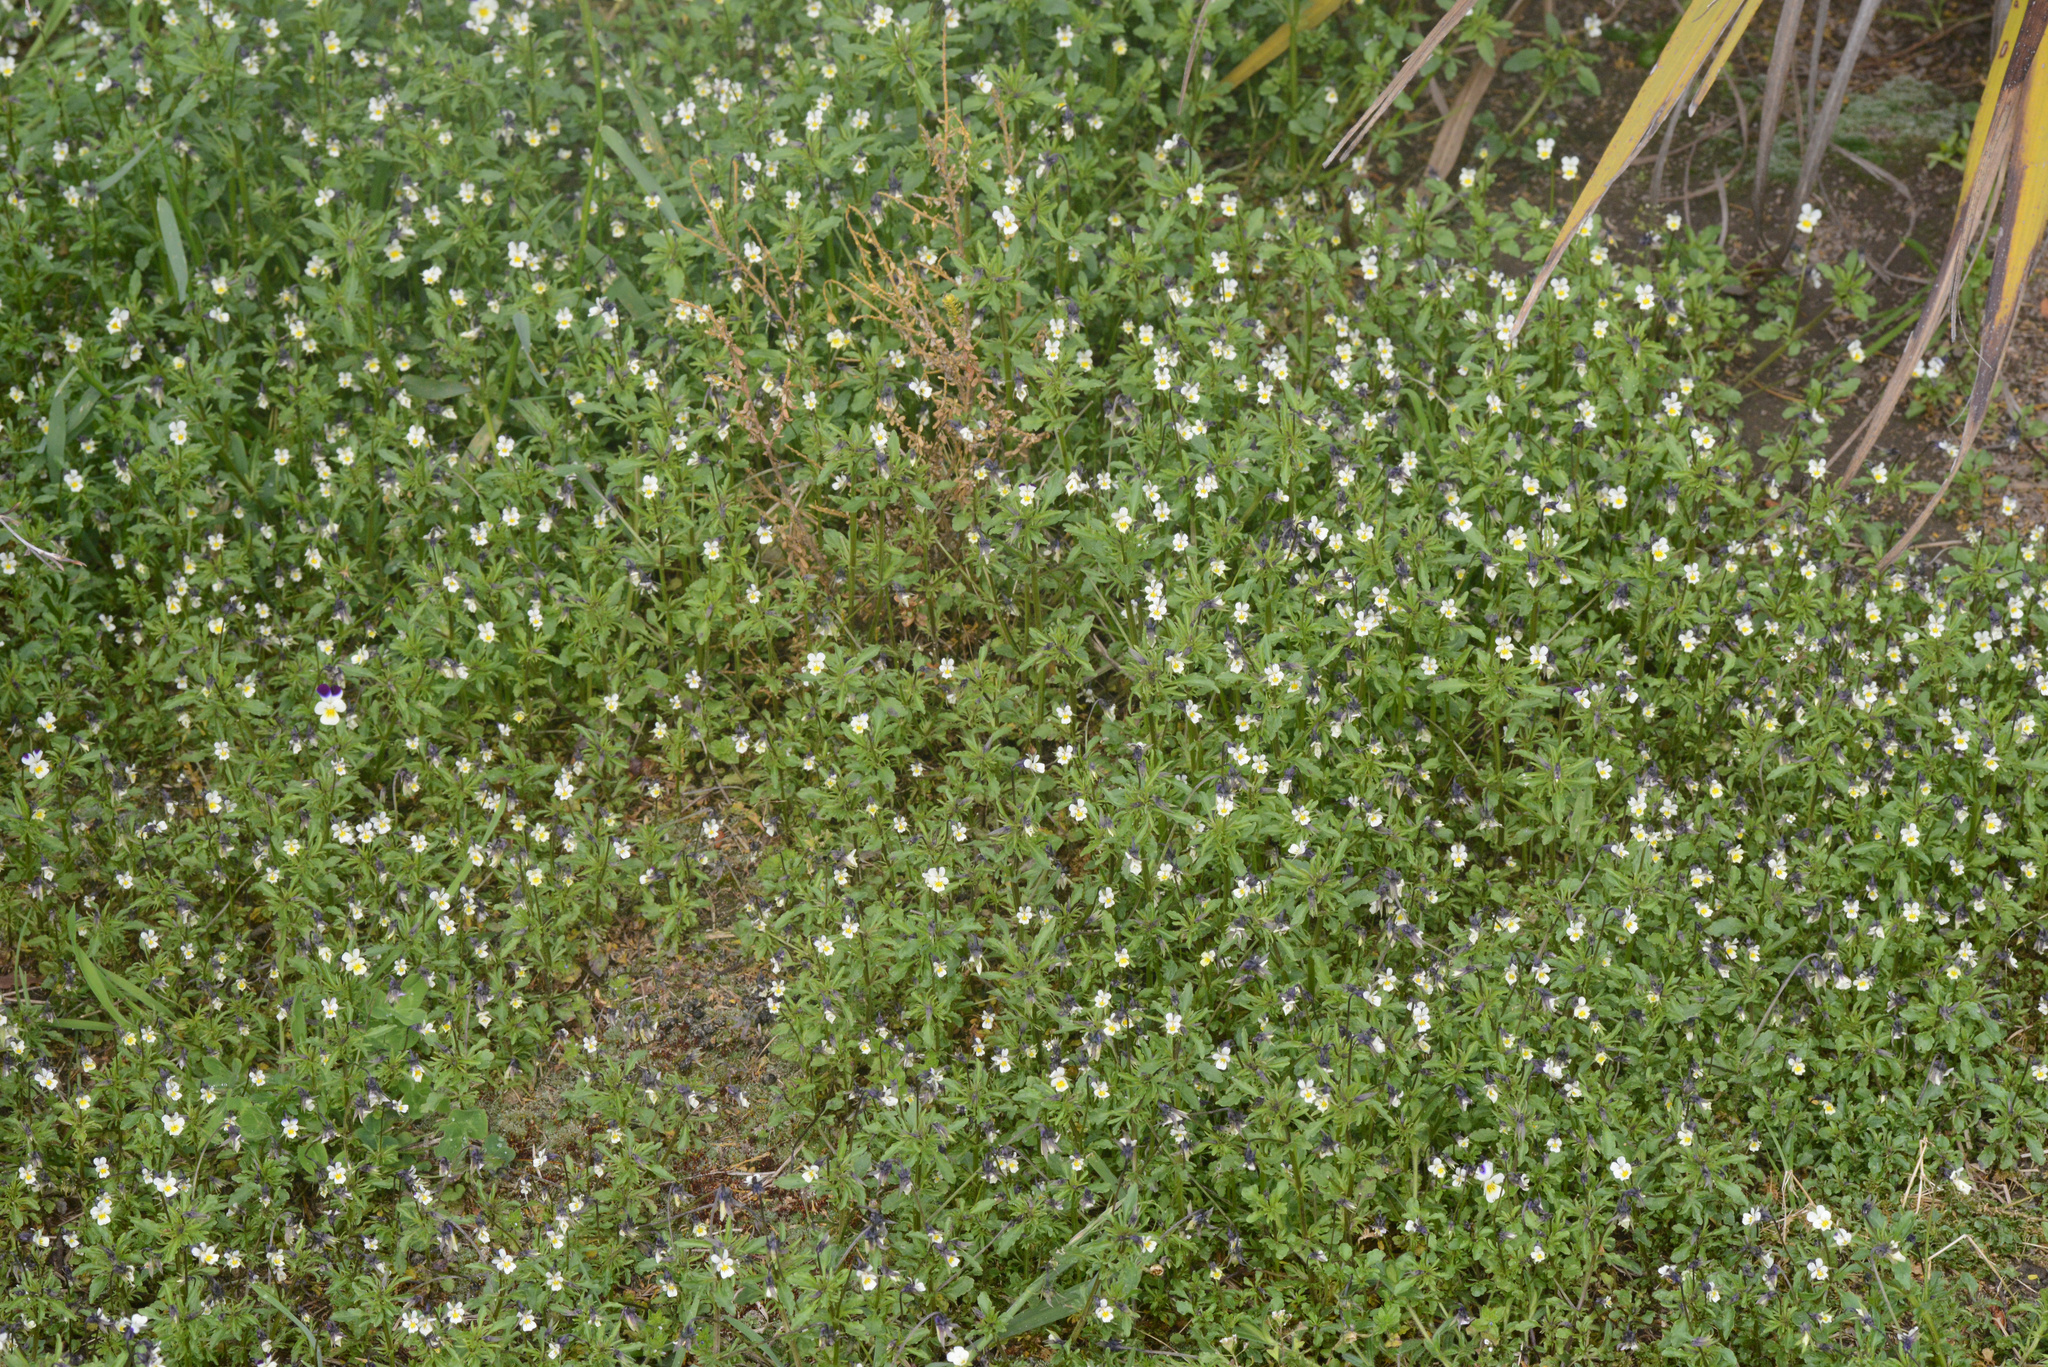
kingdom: Plantae
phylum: Tracheophyta
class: Magnoliopsida
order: Malpighiales
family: Violaceae
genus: Viola
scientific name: Viola arvensis
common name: Field pansy
